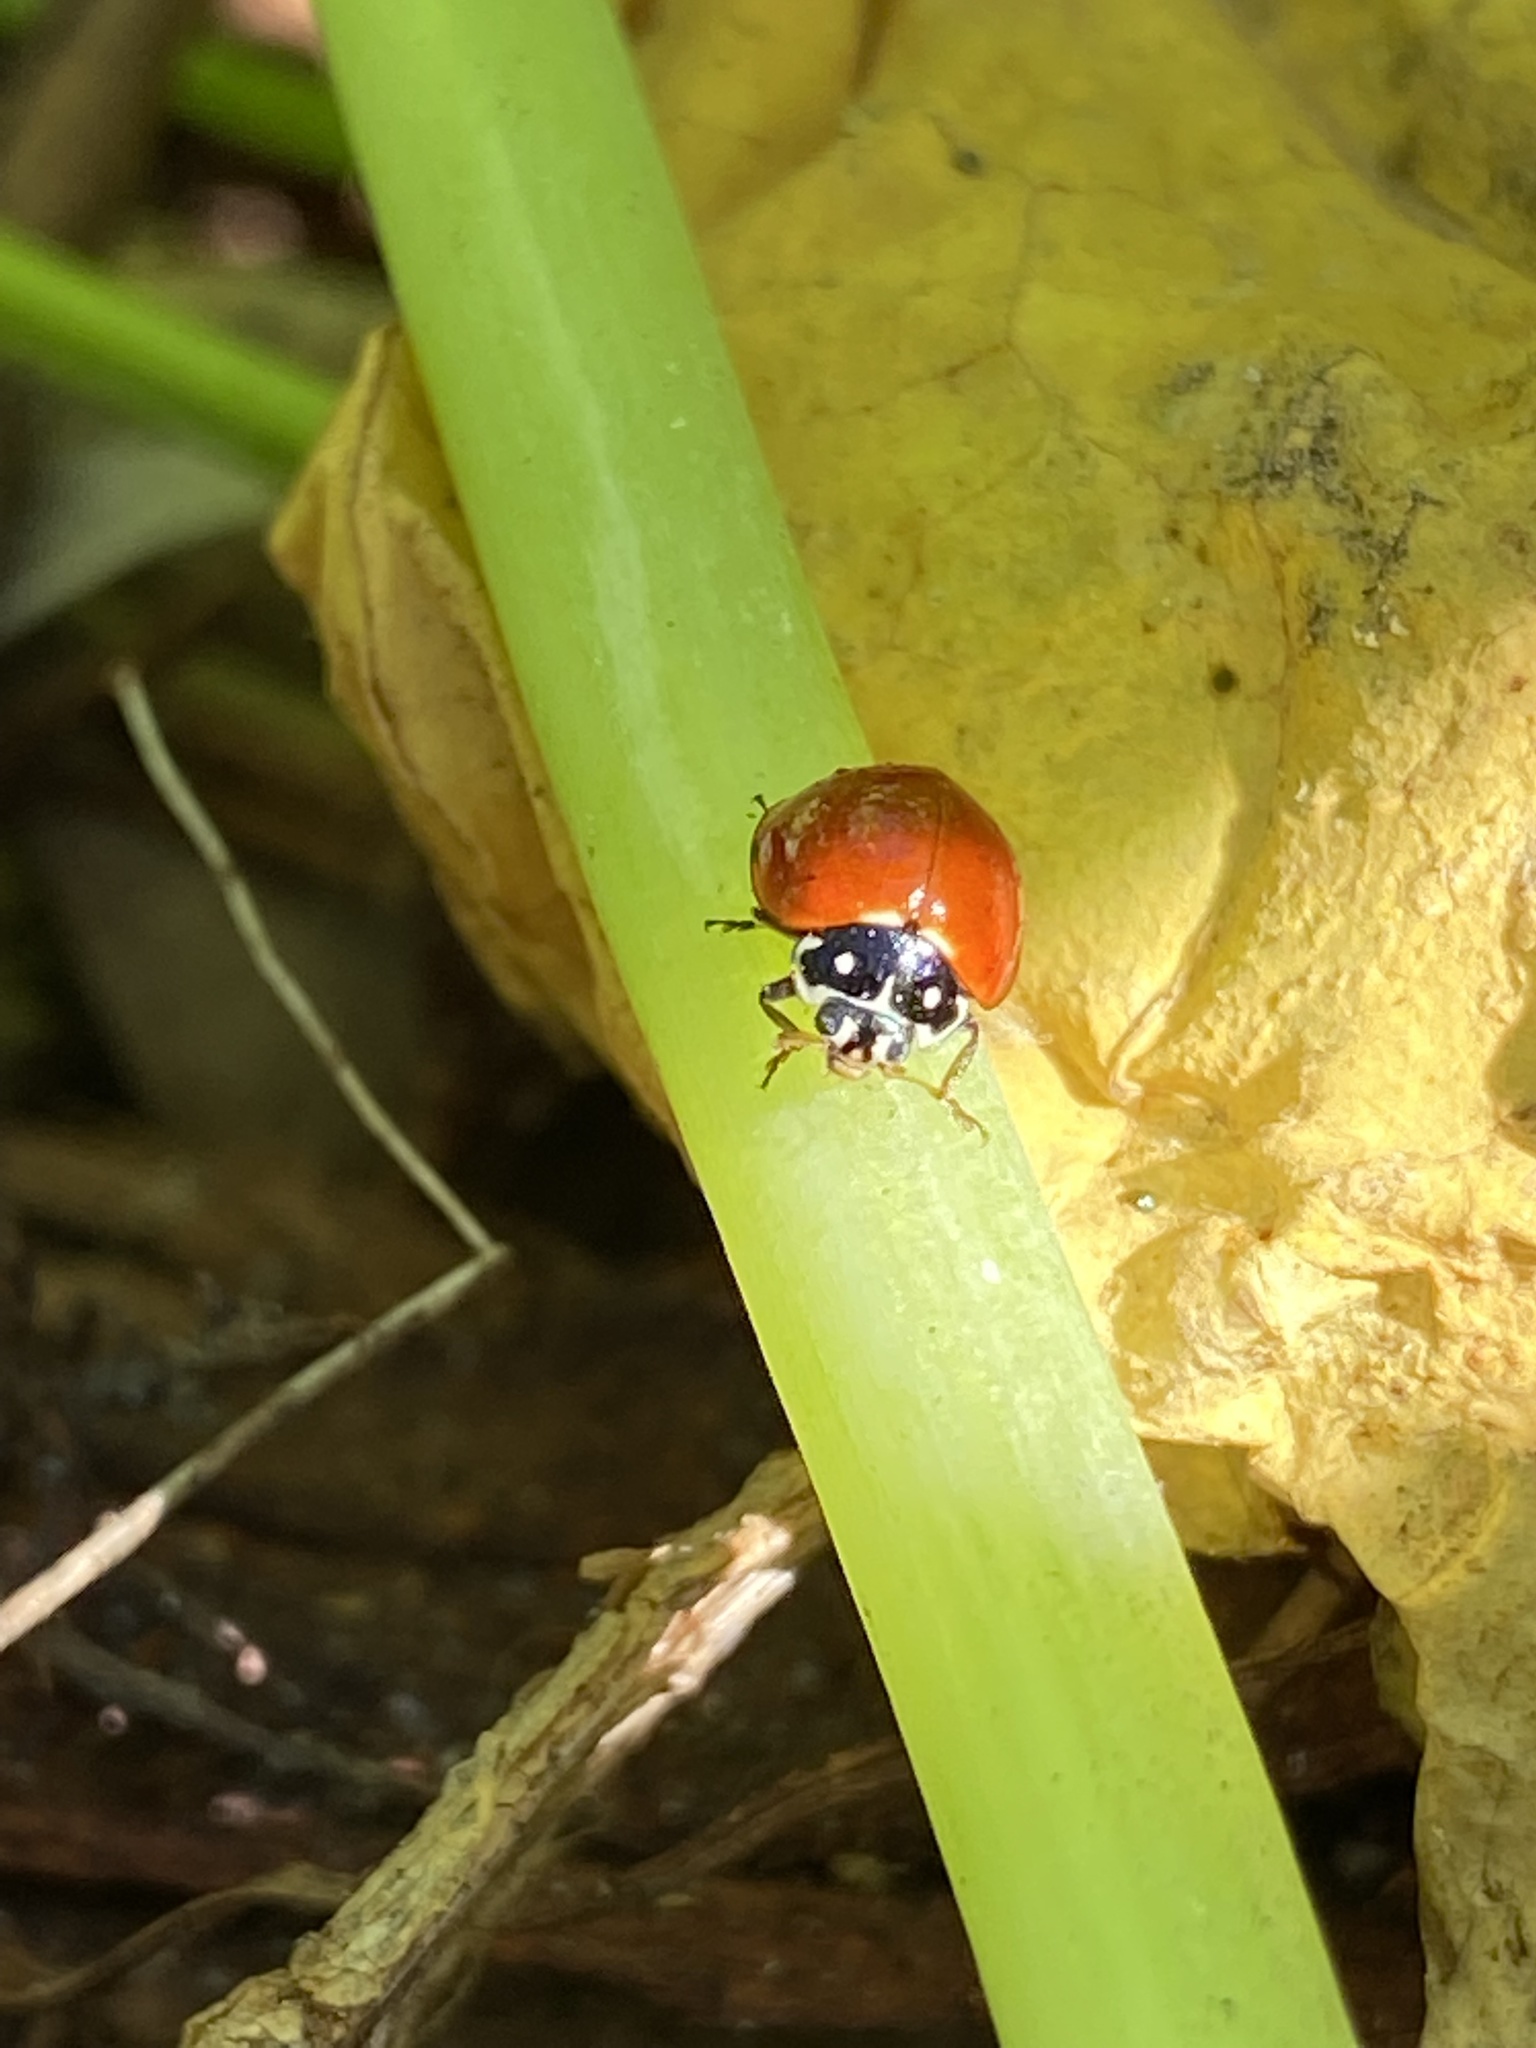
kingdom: Animalia
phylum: Arthropoda
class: Insecta
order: Coleoptera
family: Coccinellidae
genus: Cycloneda
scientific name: Cycloneda sanguinea
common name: Ladybird beetle
